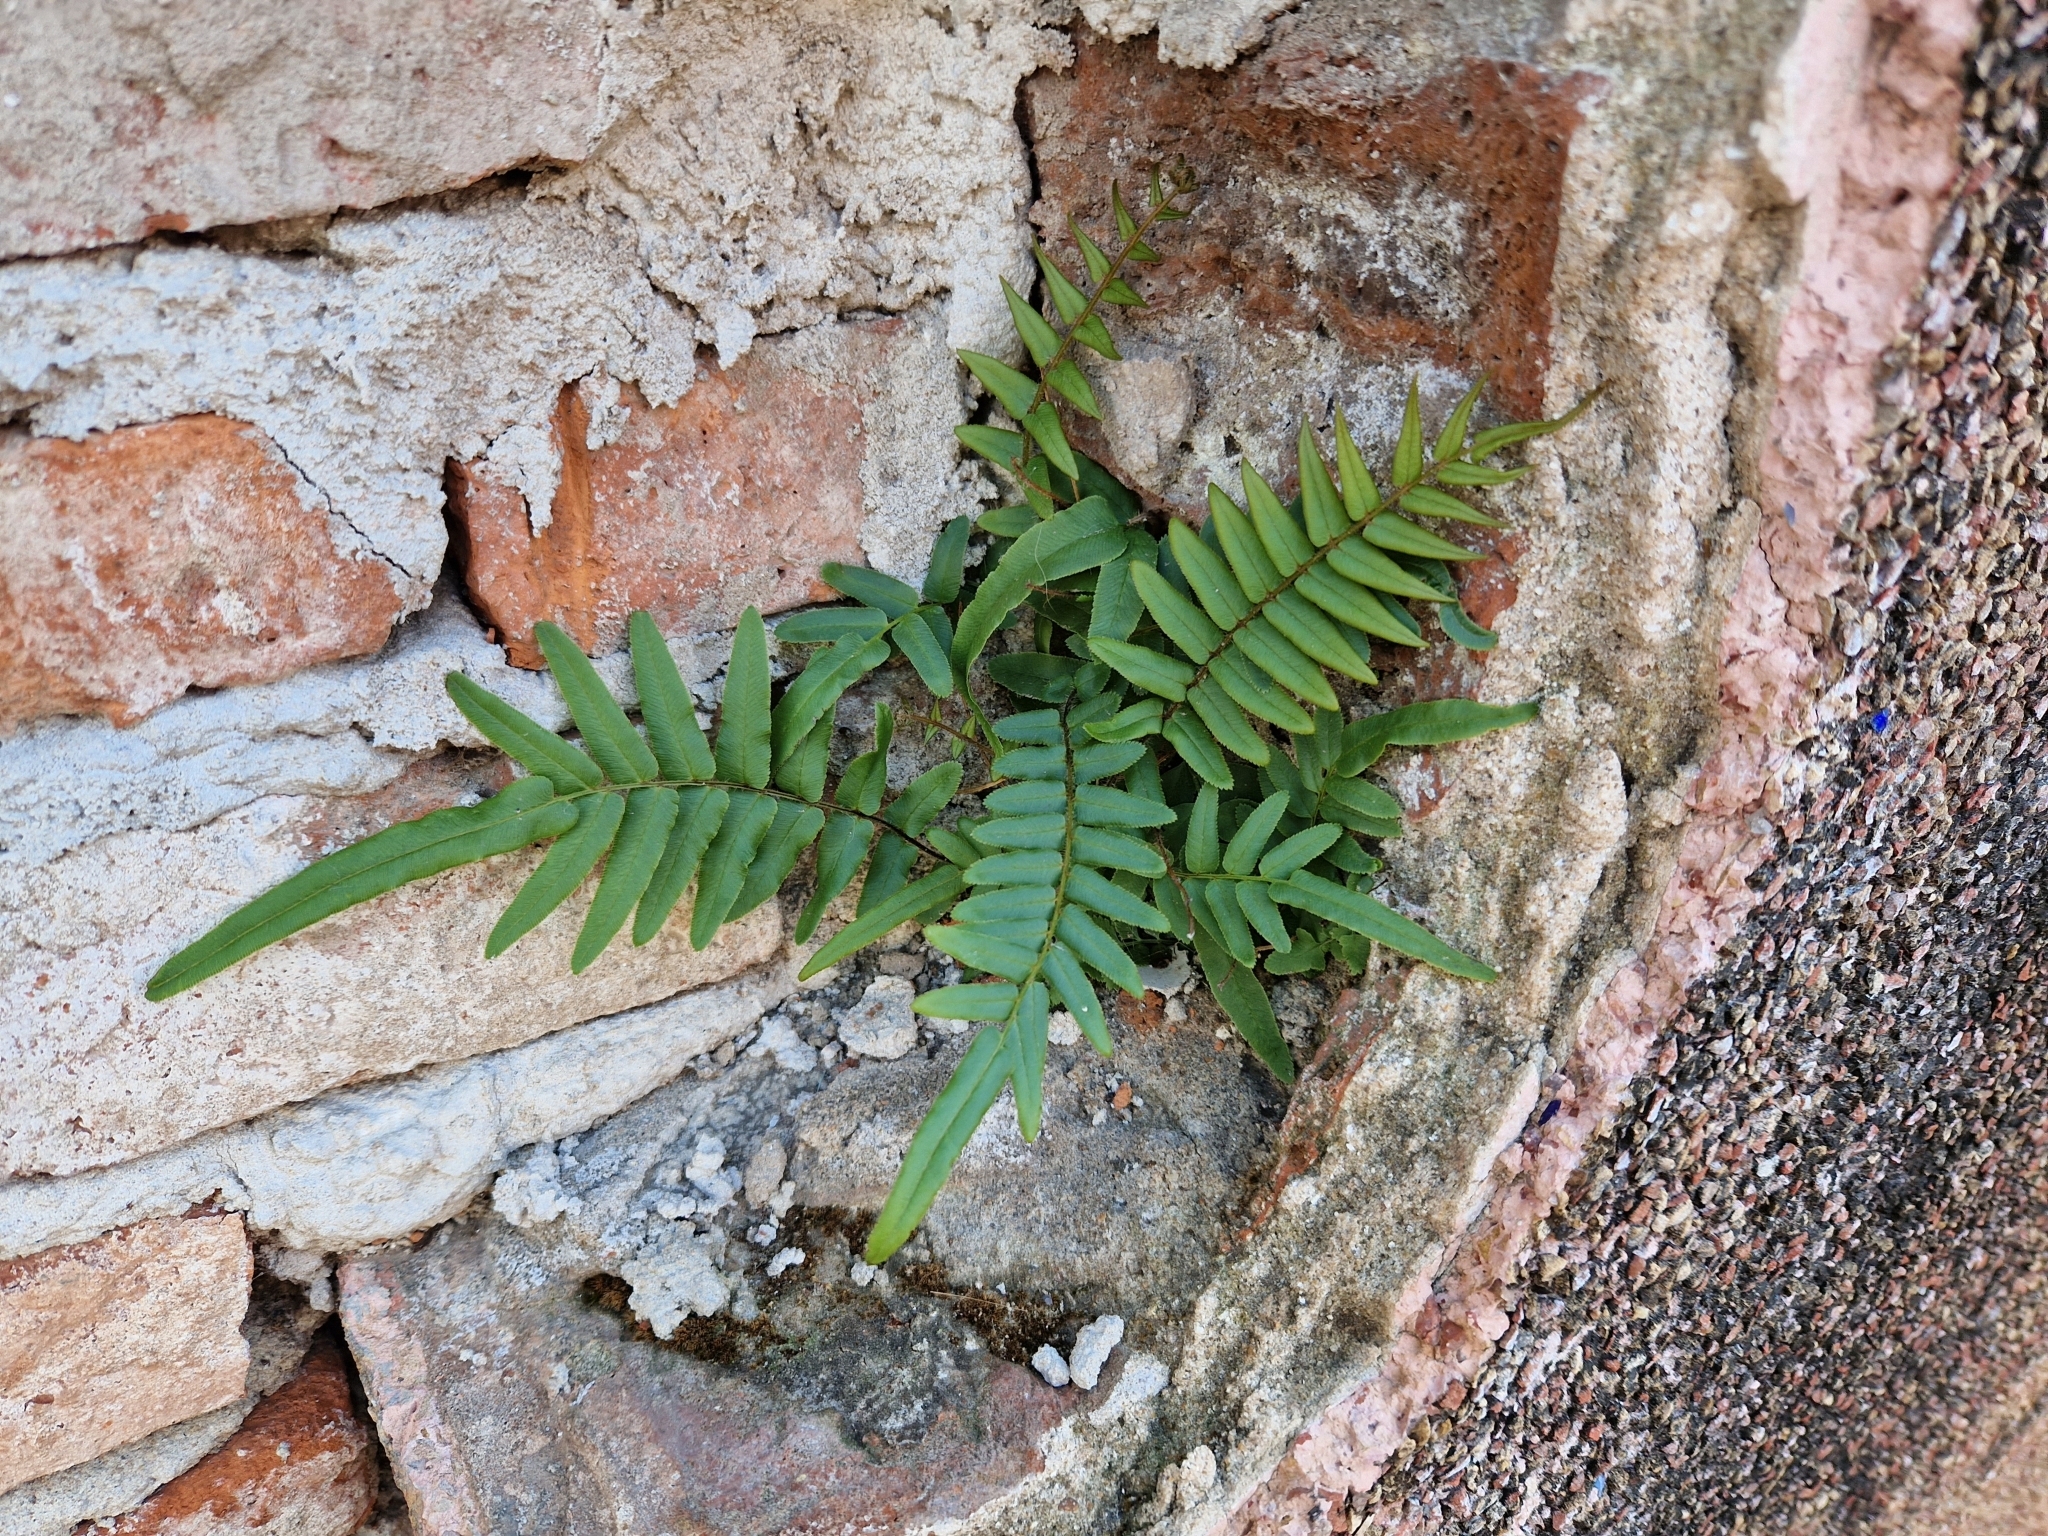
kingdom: Plantae
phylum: Tracheophyta
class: Polypodiopsida
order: Polypodiales
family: Pteridaceae
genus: Pteris
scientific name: Pteris vittata
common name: Ladder brake
